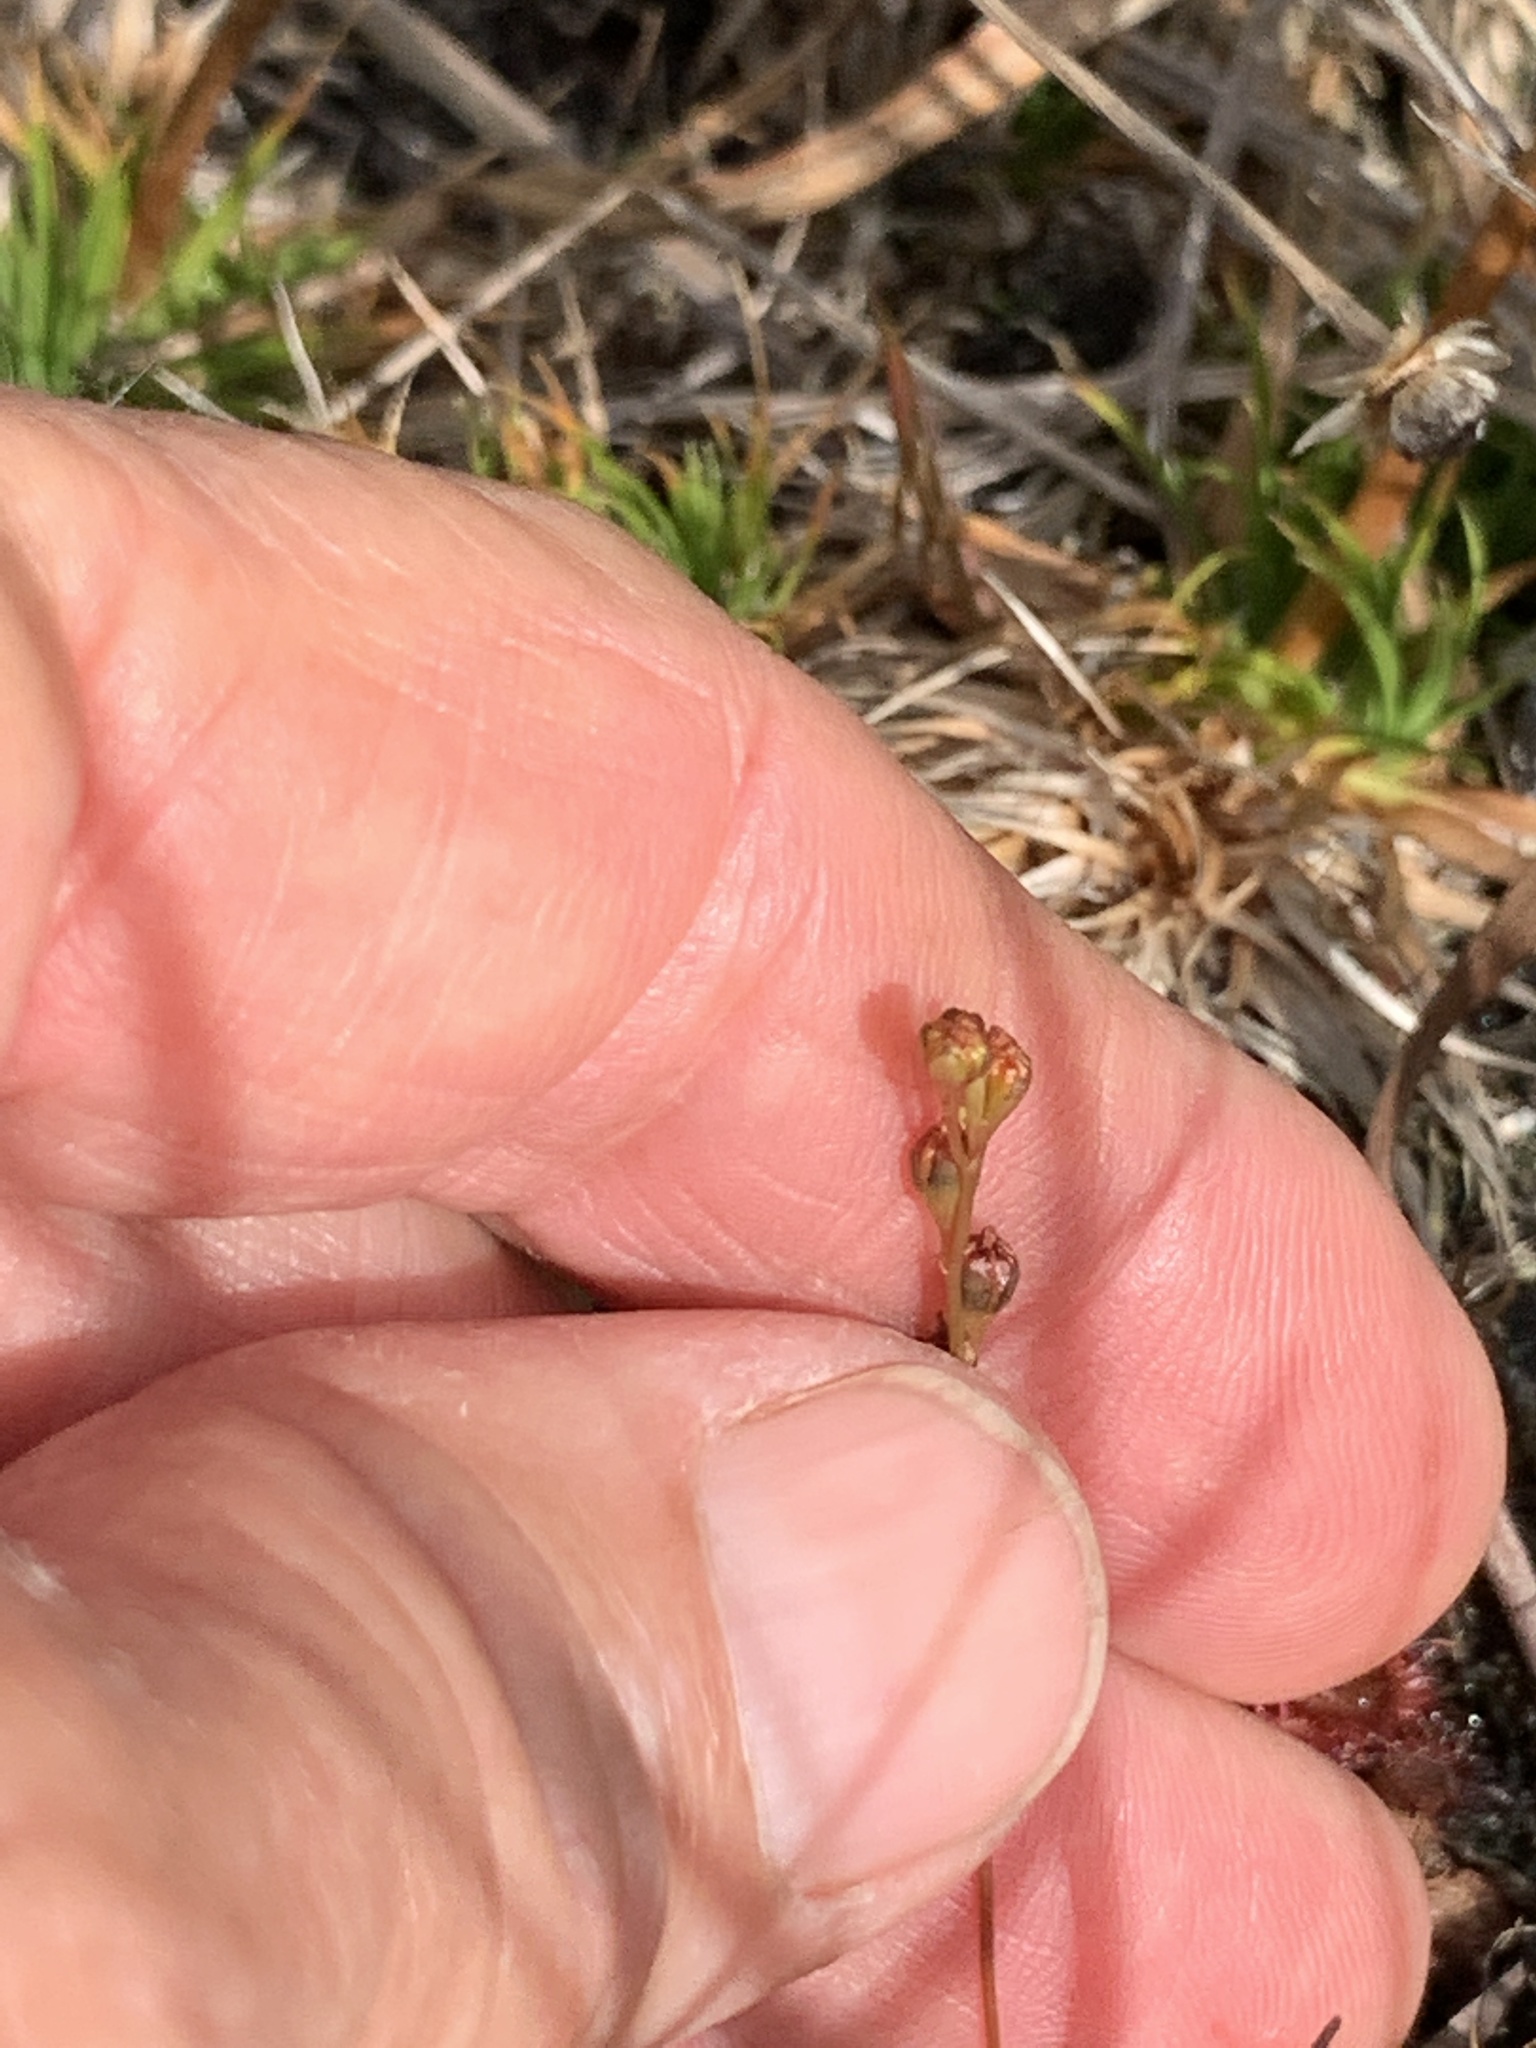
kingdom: Plantae
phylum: Tracheophyta
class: Magnoliopsida
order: Caryophyllales
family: Droseraceae
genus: Drosera
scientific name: Drosera capillaris
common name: Pink sundew
